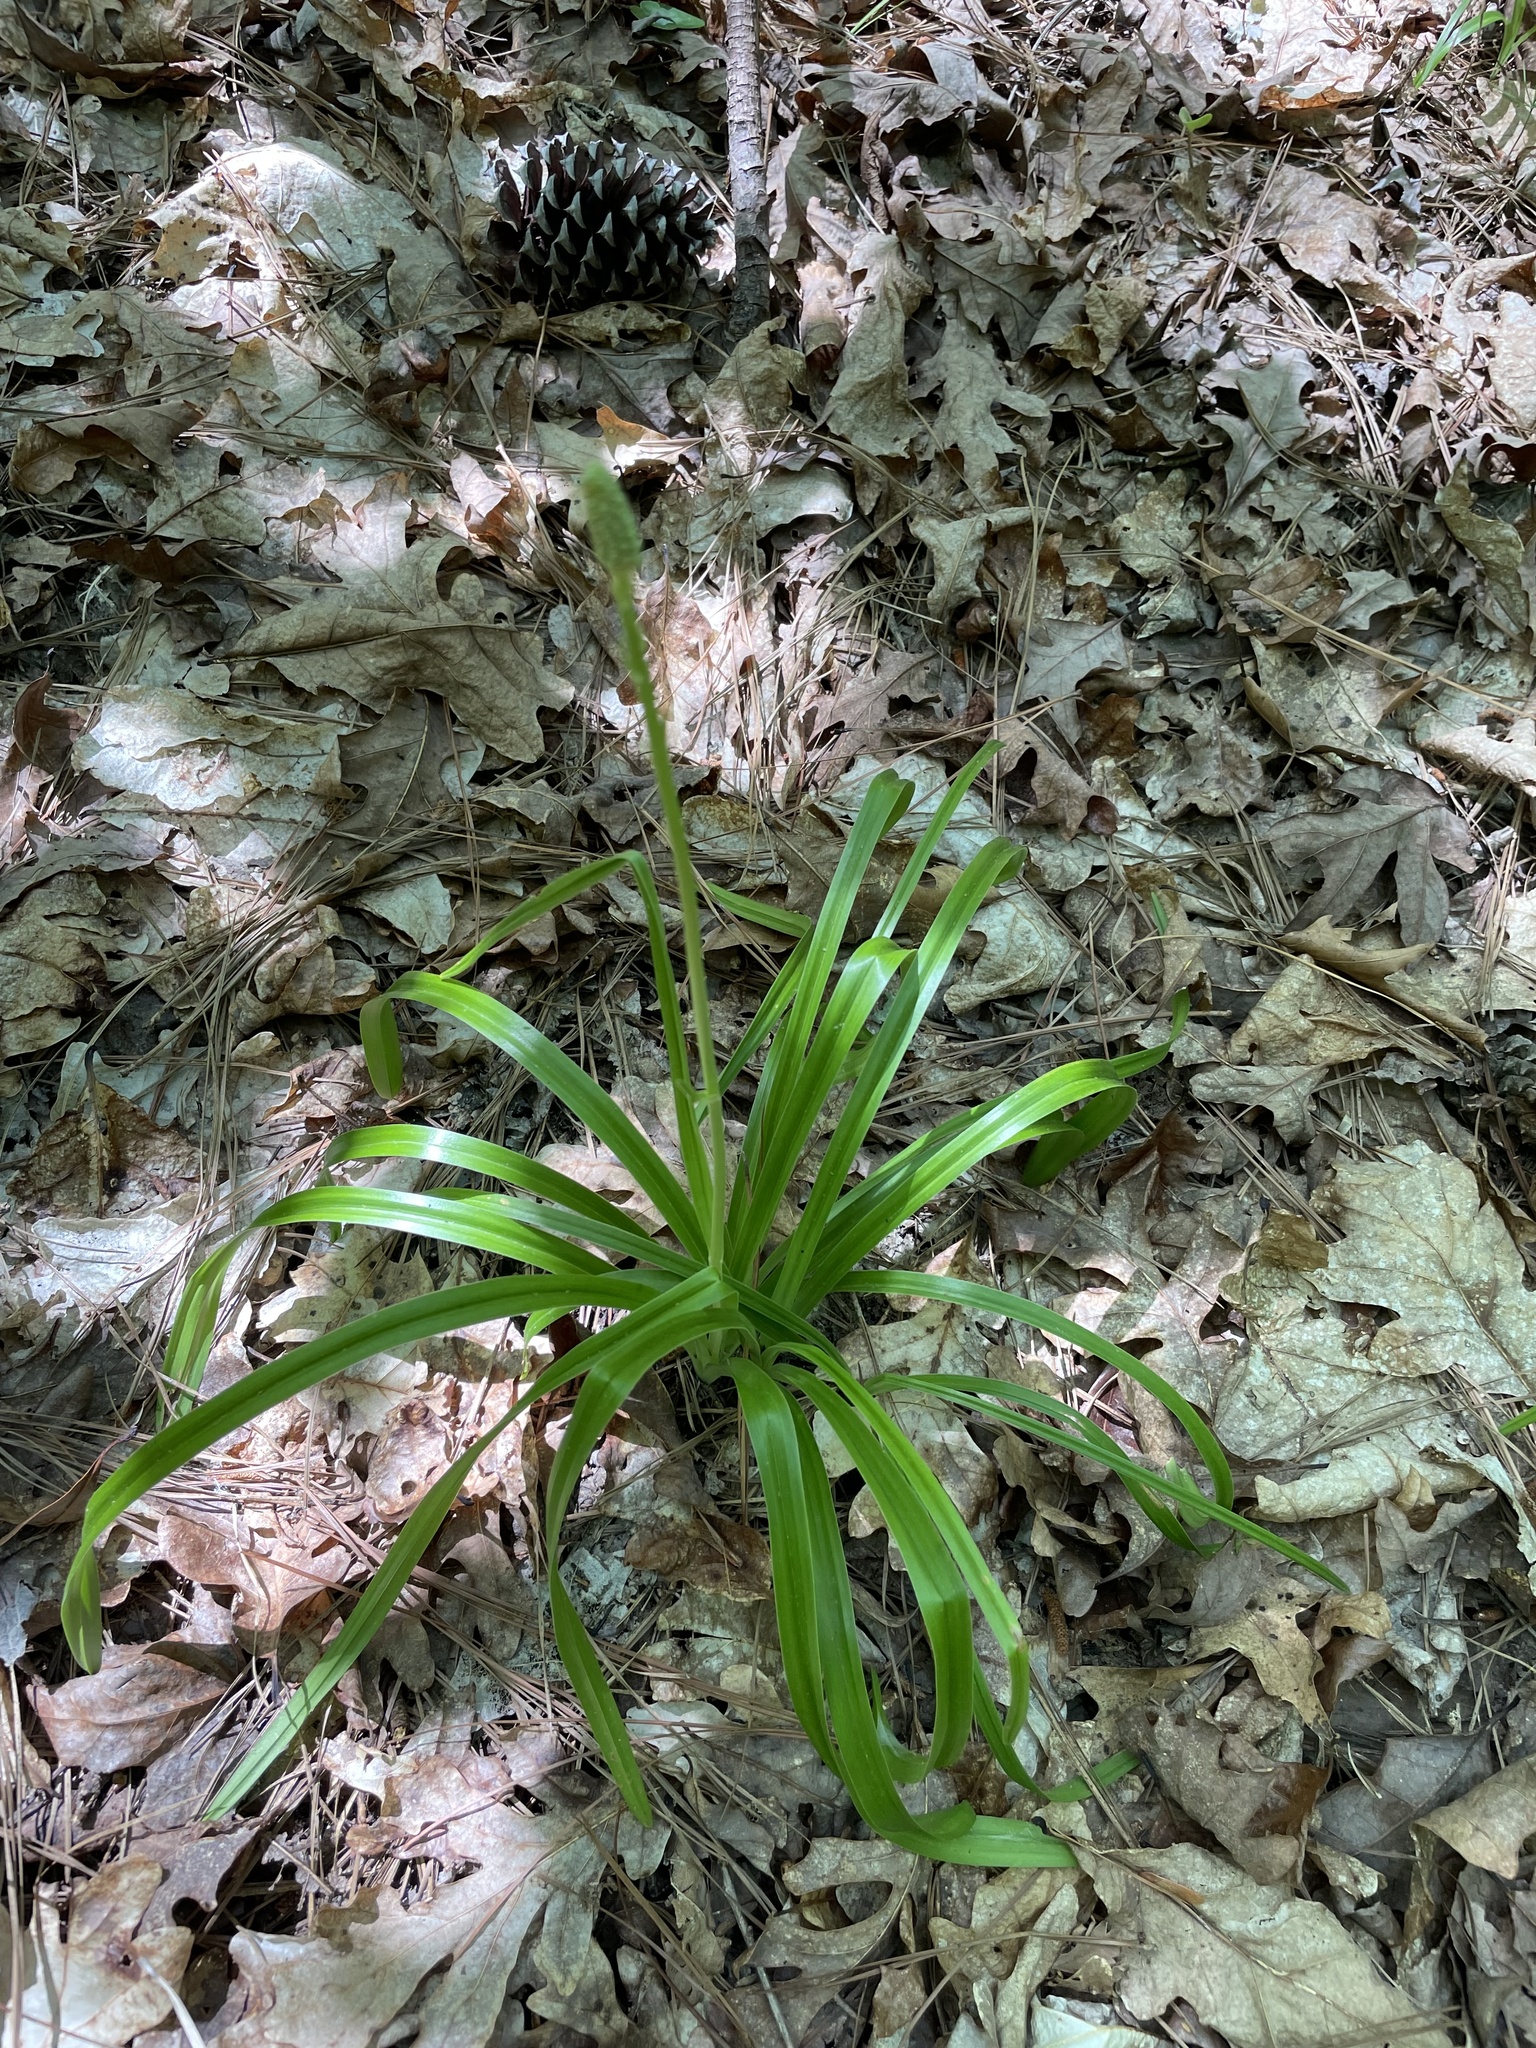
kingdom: Plantae
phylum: Tracheophyta
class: Liliopsida
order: Liliales
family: Melanthiaceae
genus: Amianthium
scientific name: Amianthium muscitoxicum
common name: Fly-poison
